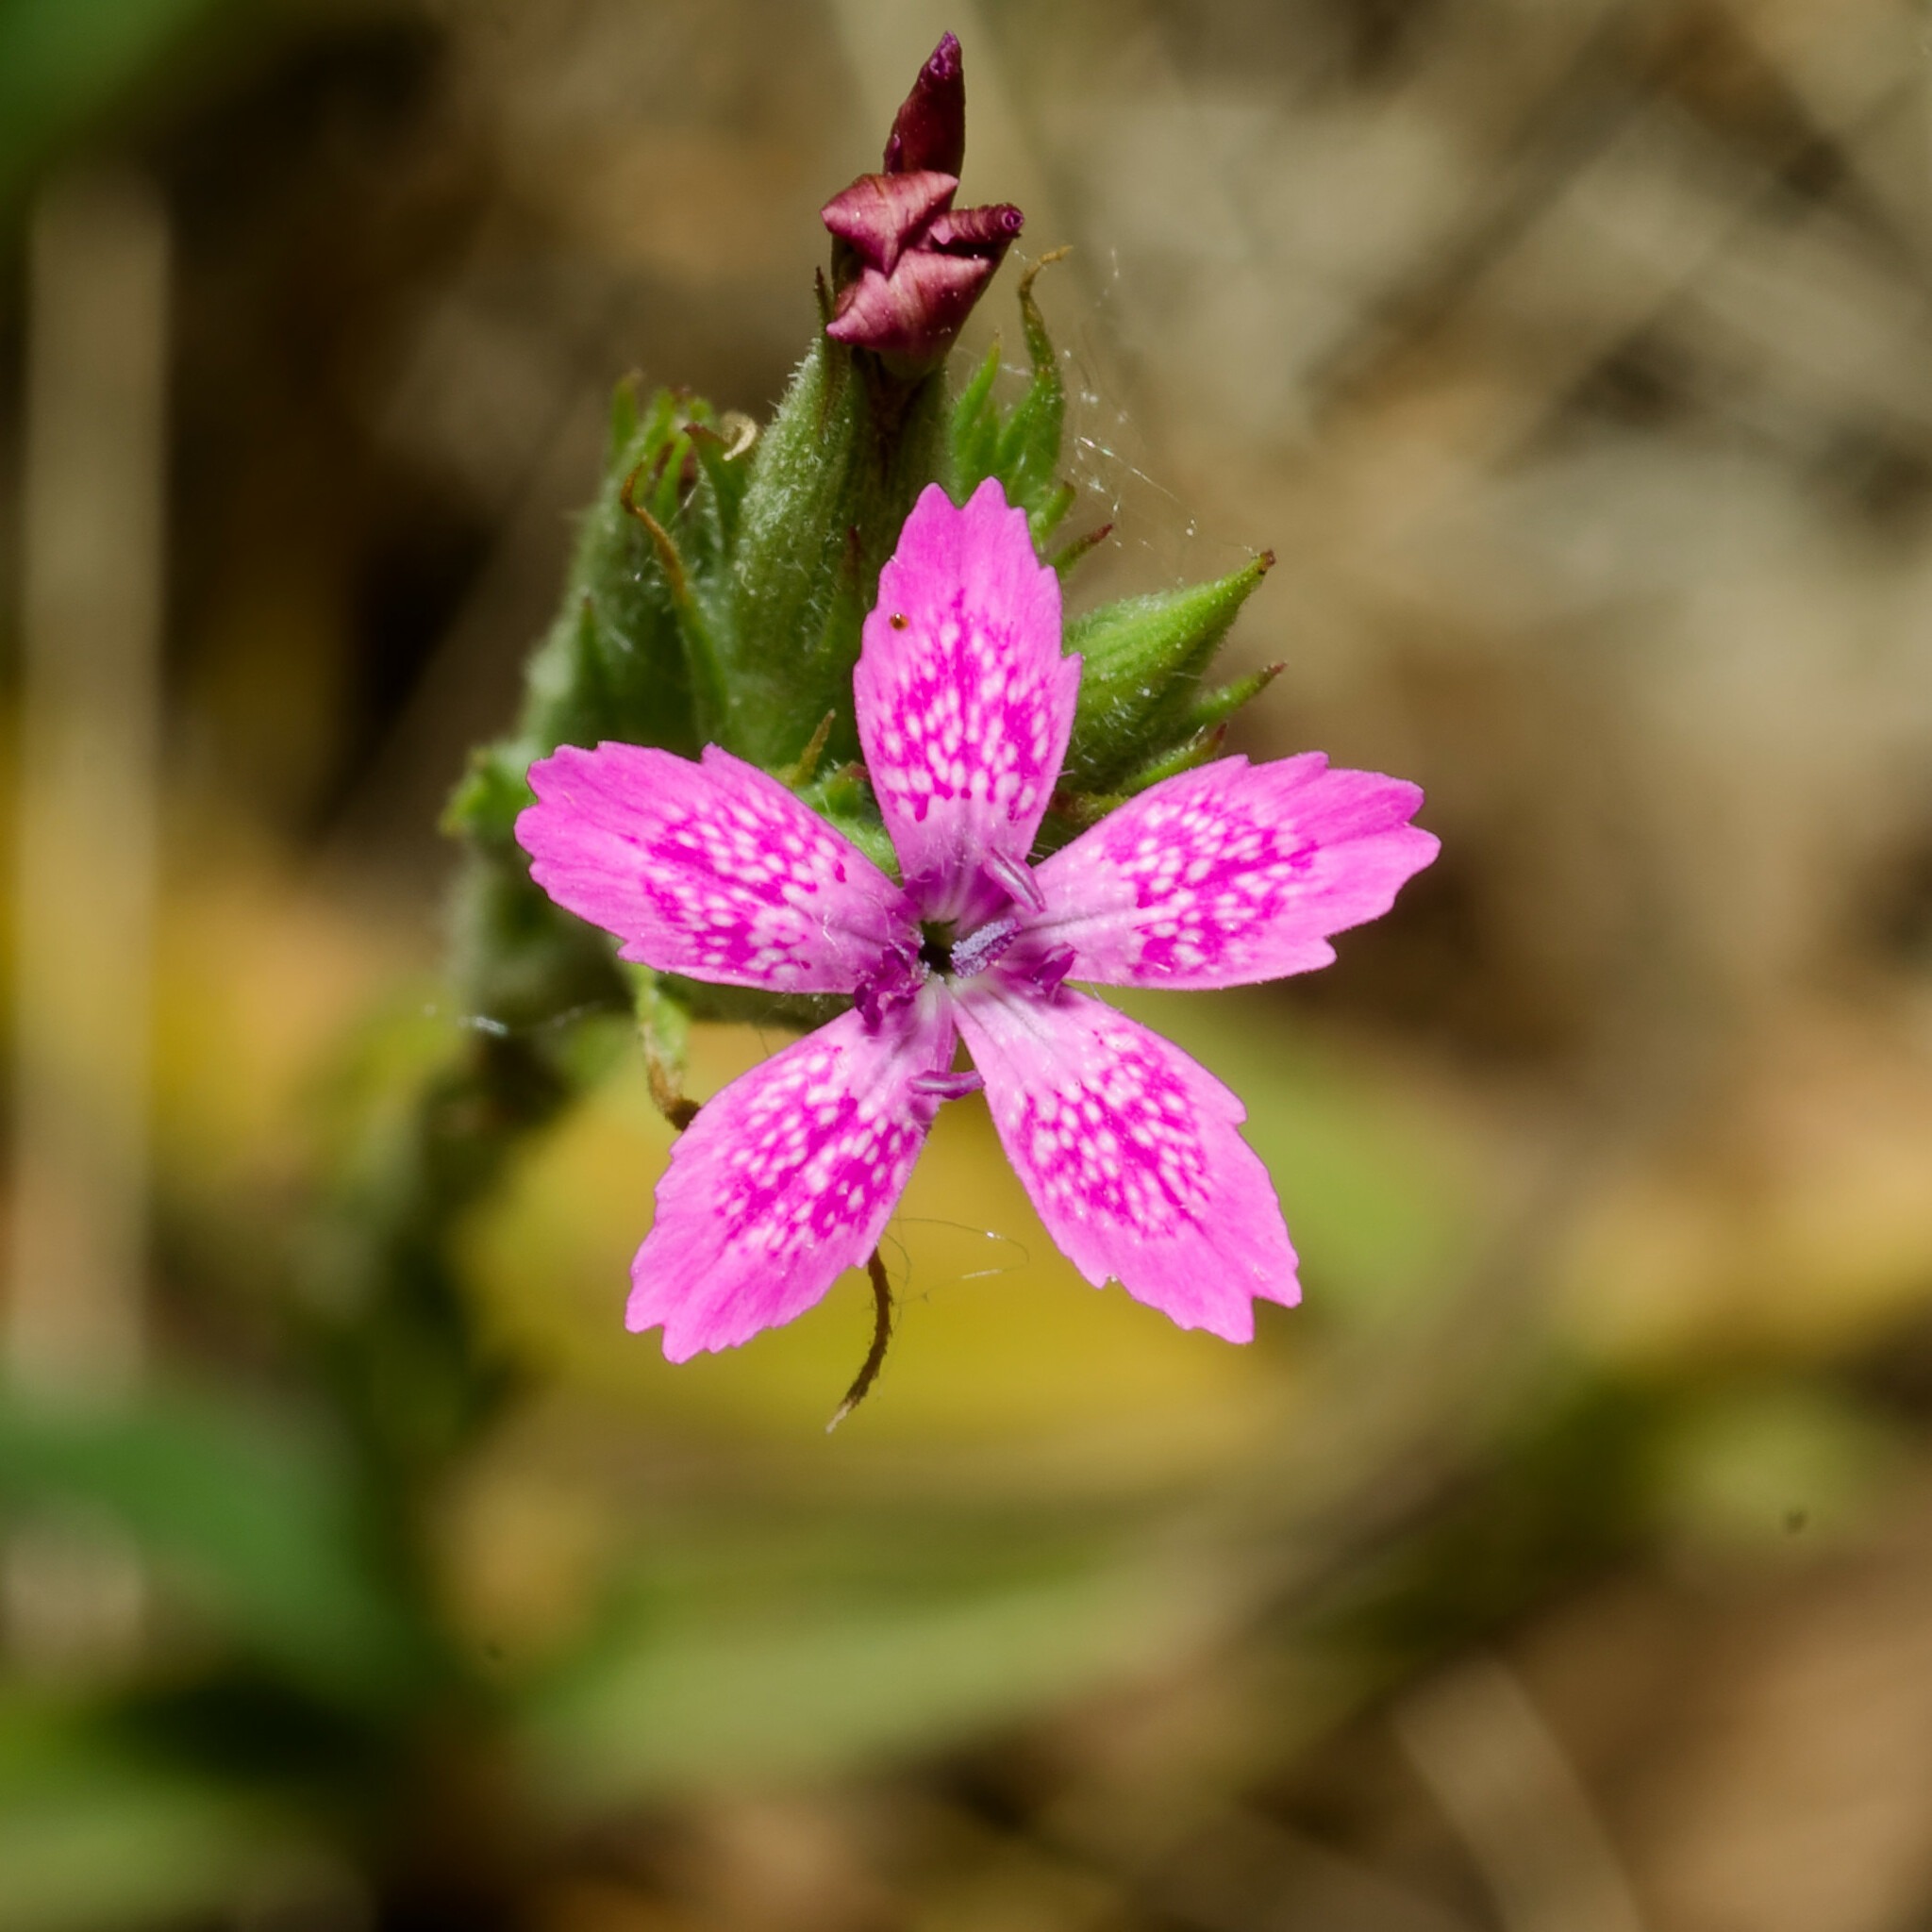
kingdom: Plantae
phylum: Tracheophyta
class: Magnoliopsida
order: Caryophyllales
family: Caryophyllaceae
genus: Dianthus
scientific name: Dianthus armeria
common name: Deptford pink
